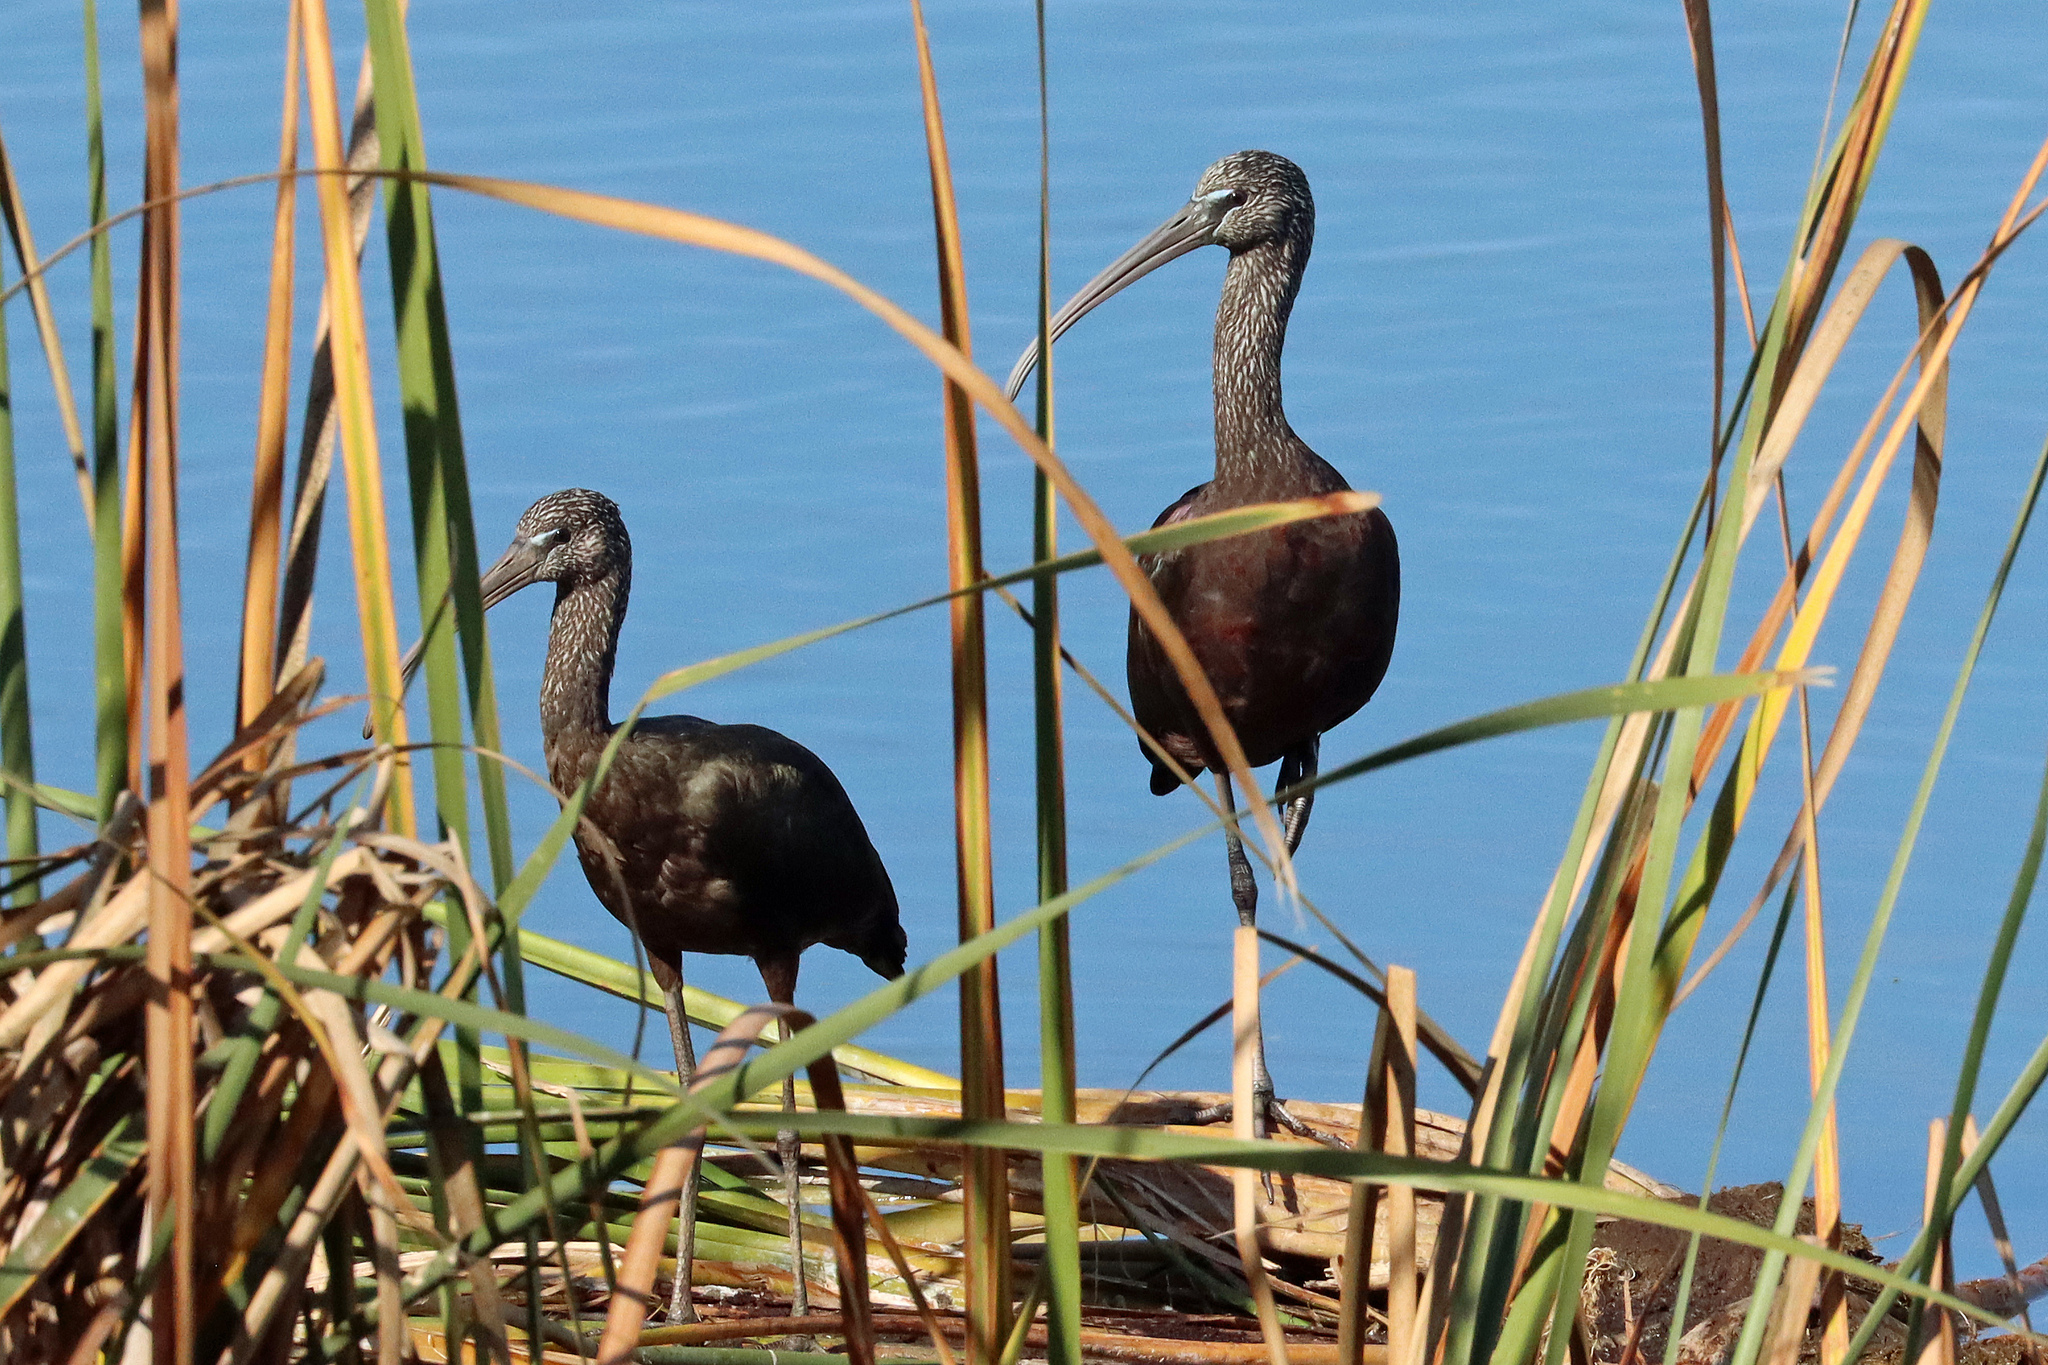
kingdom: Animalia
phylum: Chordata
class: Aves
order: Pelecaniformes
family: Threskiornithidae
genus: Plegadis
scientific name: Plegadis falcinellus
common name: Glossy ibis
